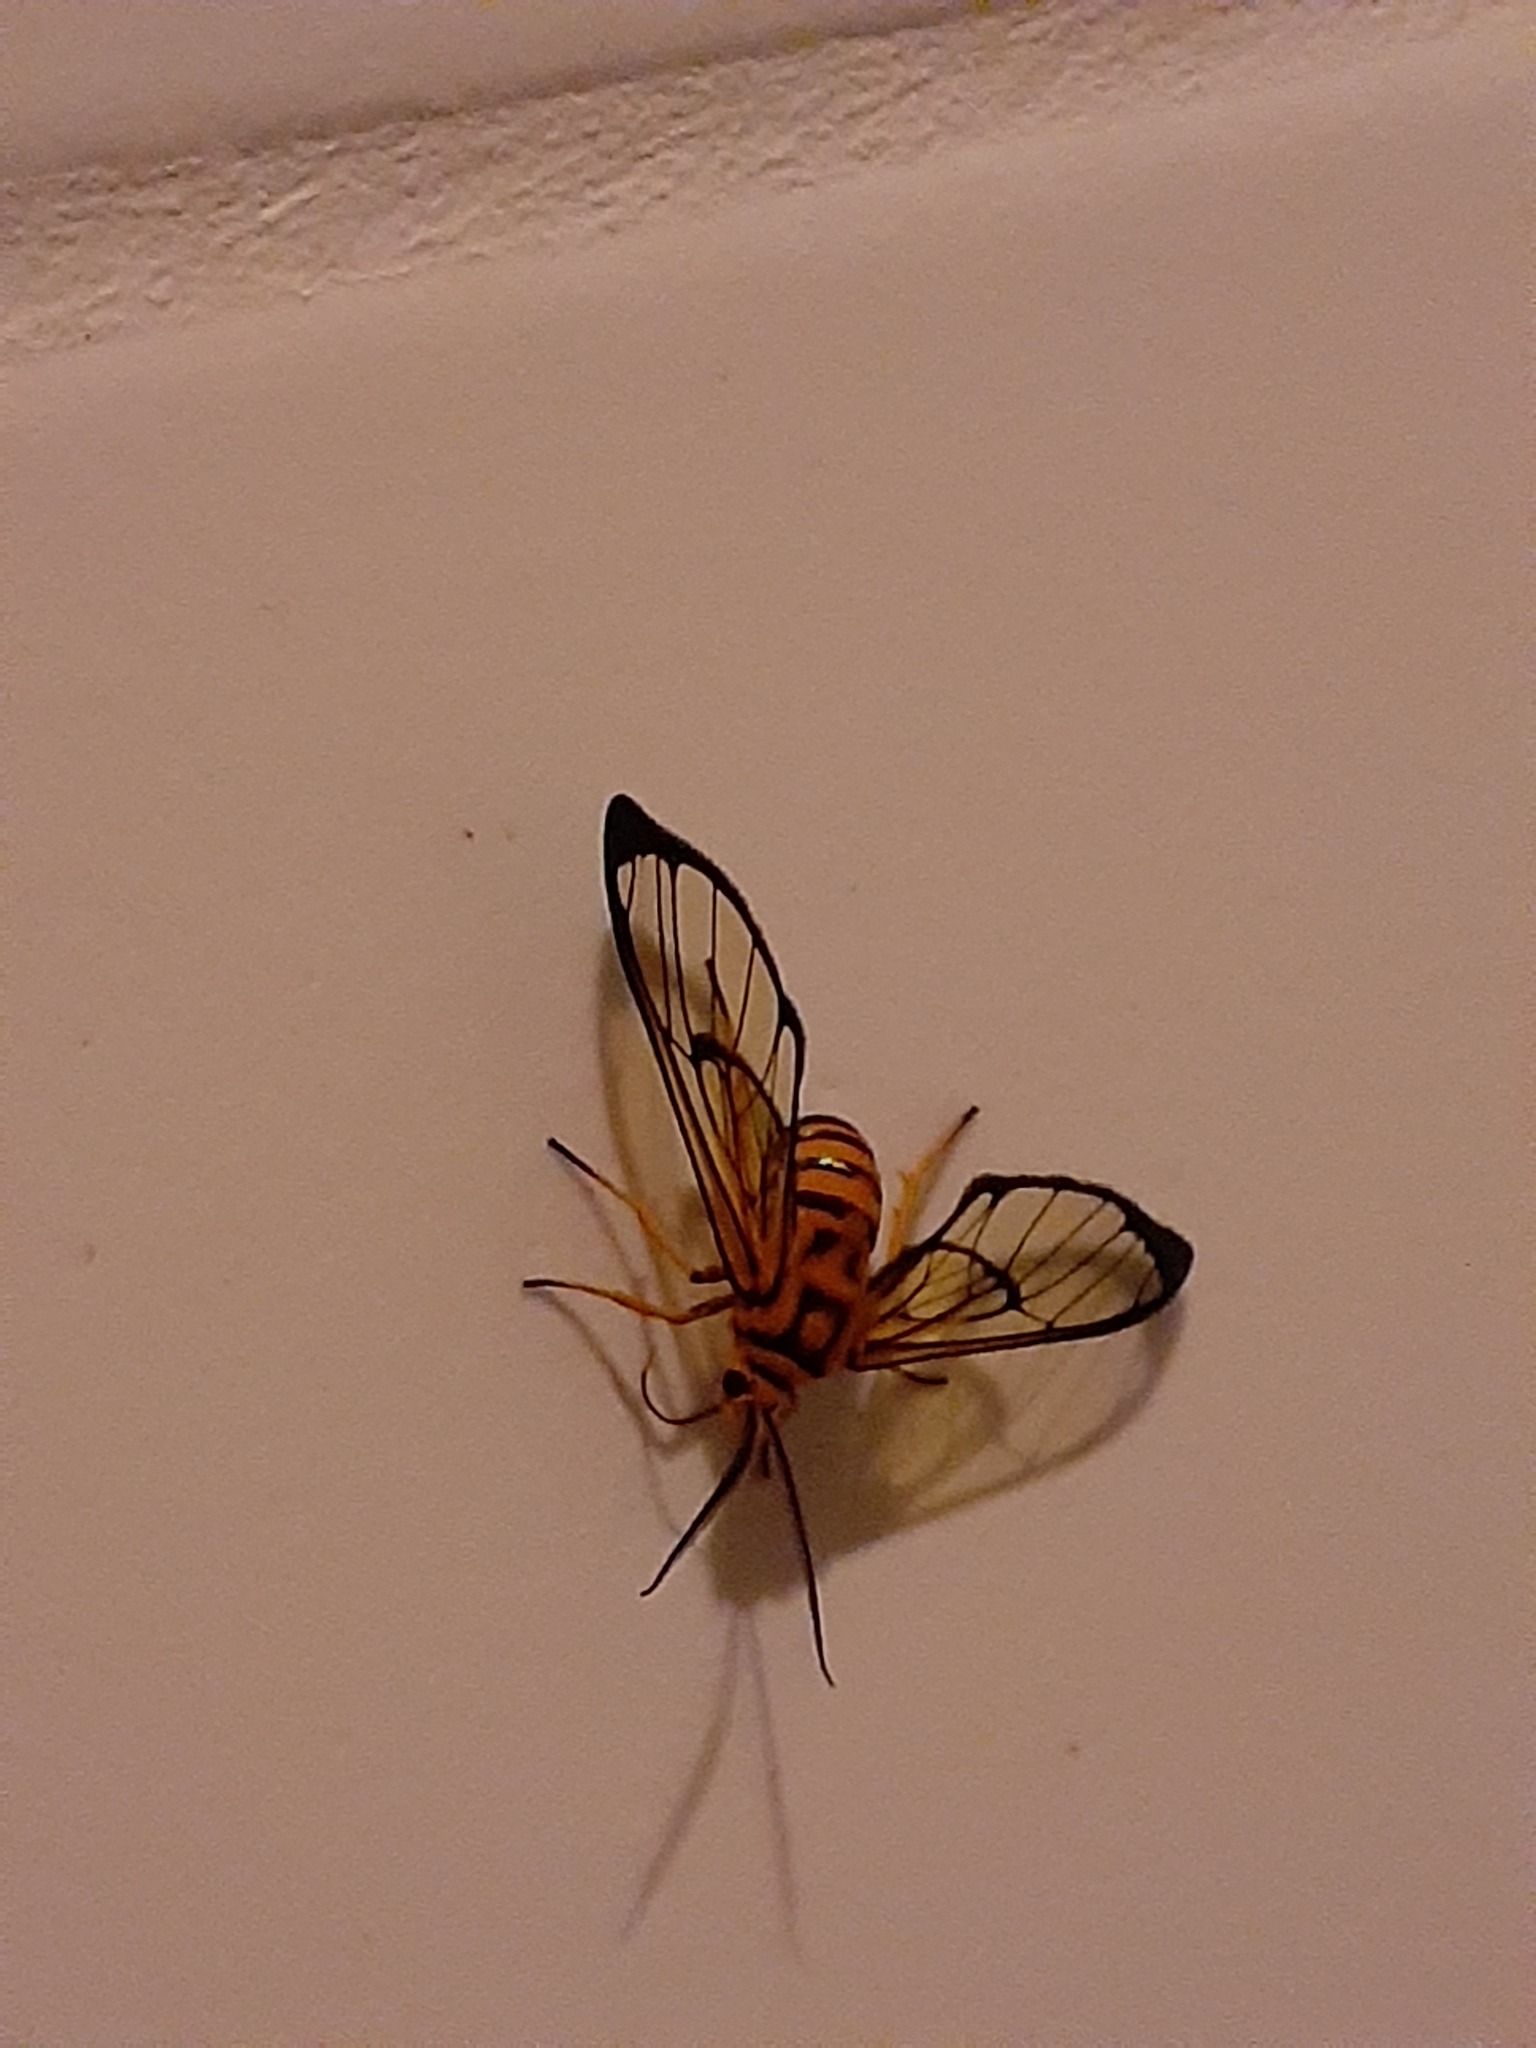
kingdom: Animalia
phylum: Arthropoda
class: Insecta
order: Lepidoptera
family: Erebidae
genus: Mesothen
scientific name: Mesothen nomia
